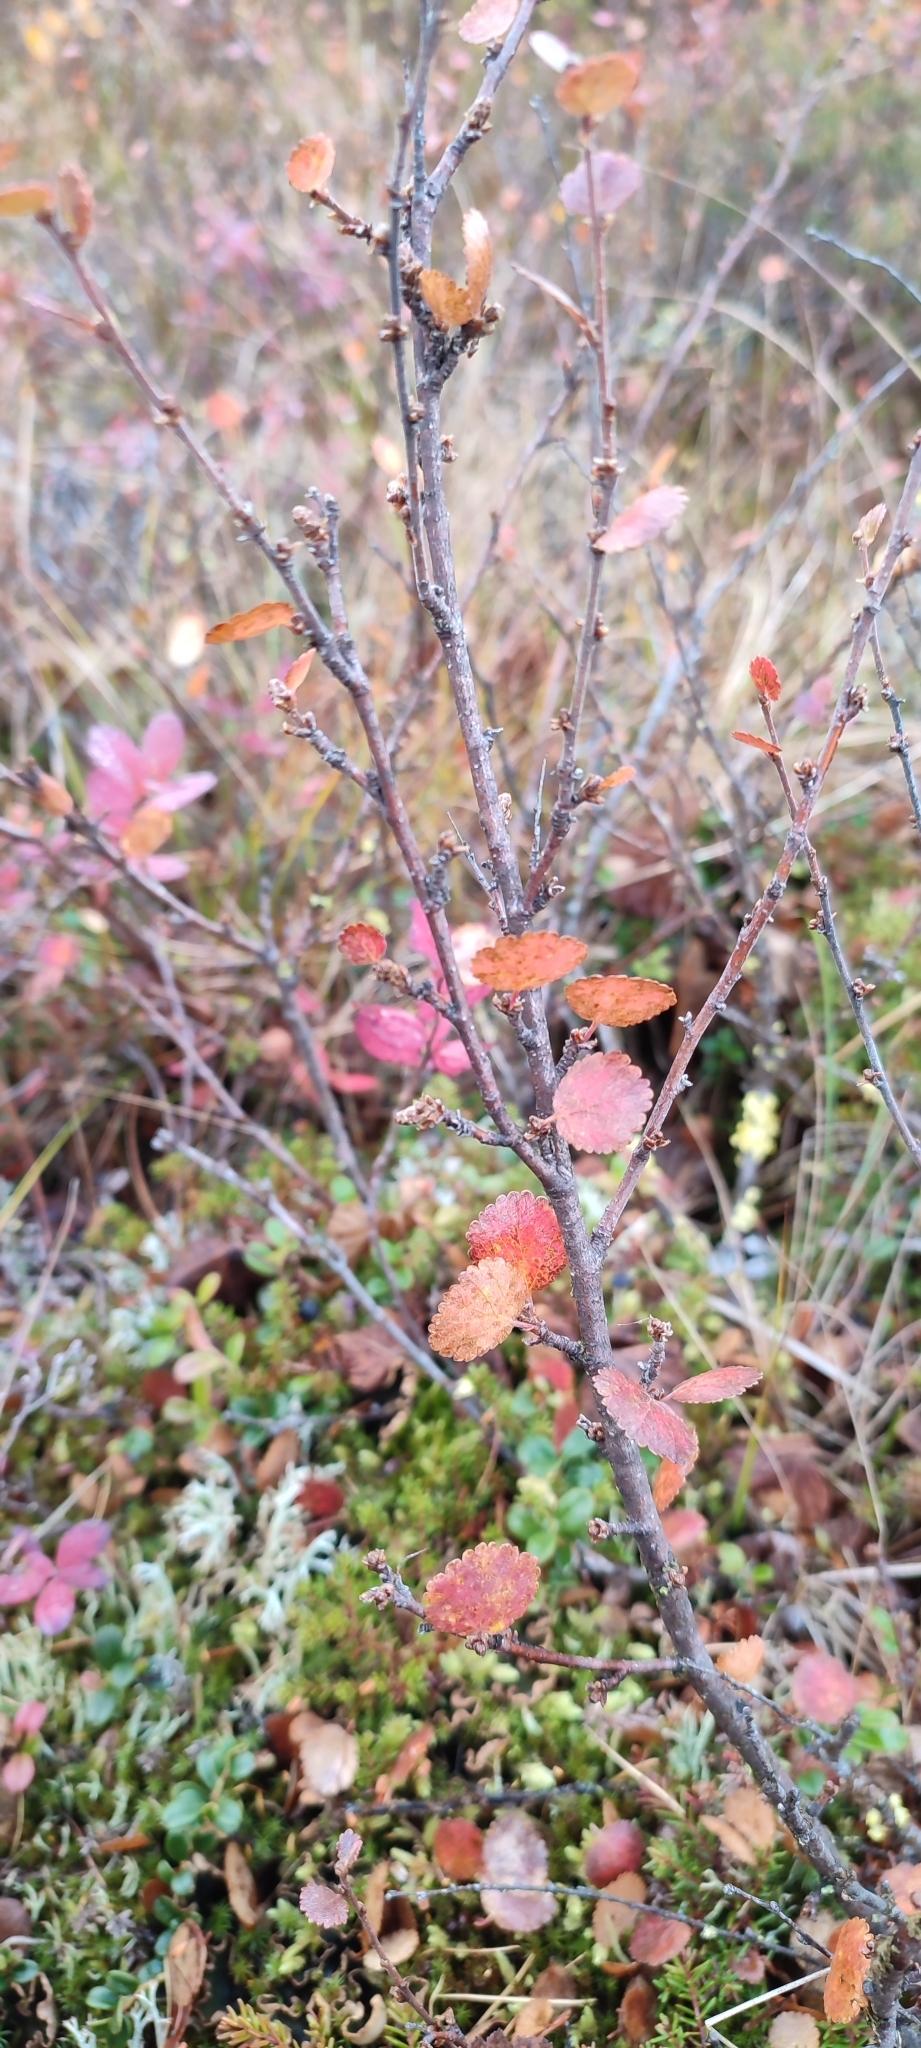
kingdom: Plantae
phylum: Tracheophyta
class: Magnoliopsida
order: Fagales
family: Betulaceae
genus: Betula
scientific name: Betula nana
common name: Arctic dwarf birch
